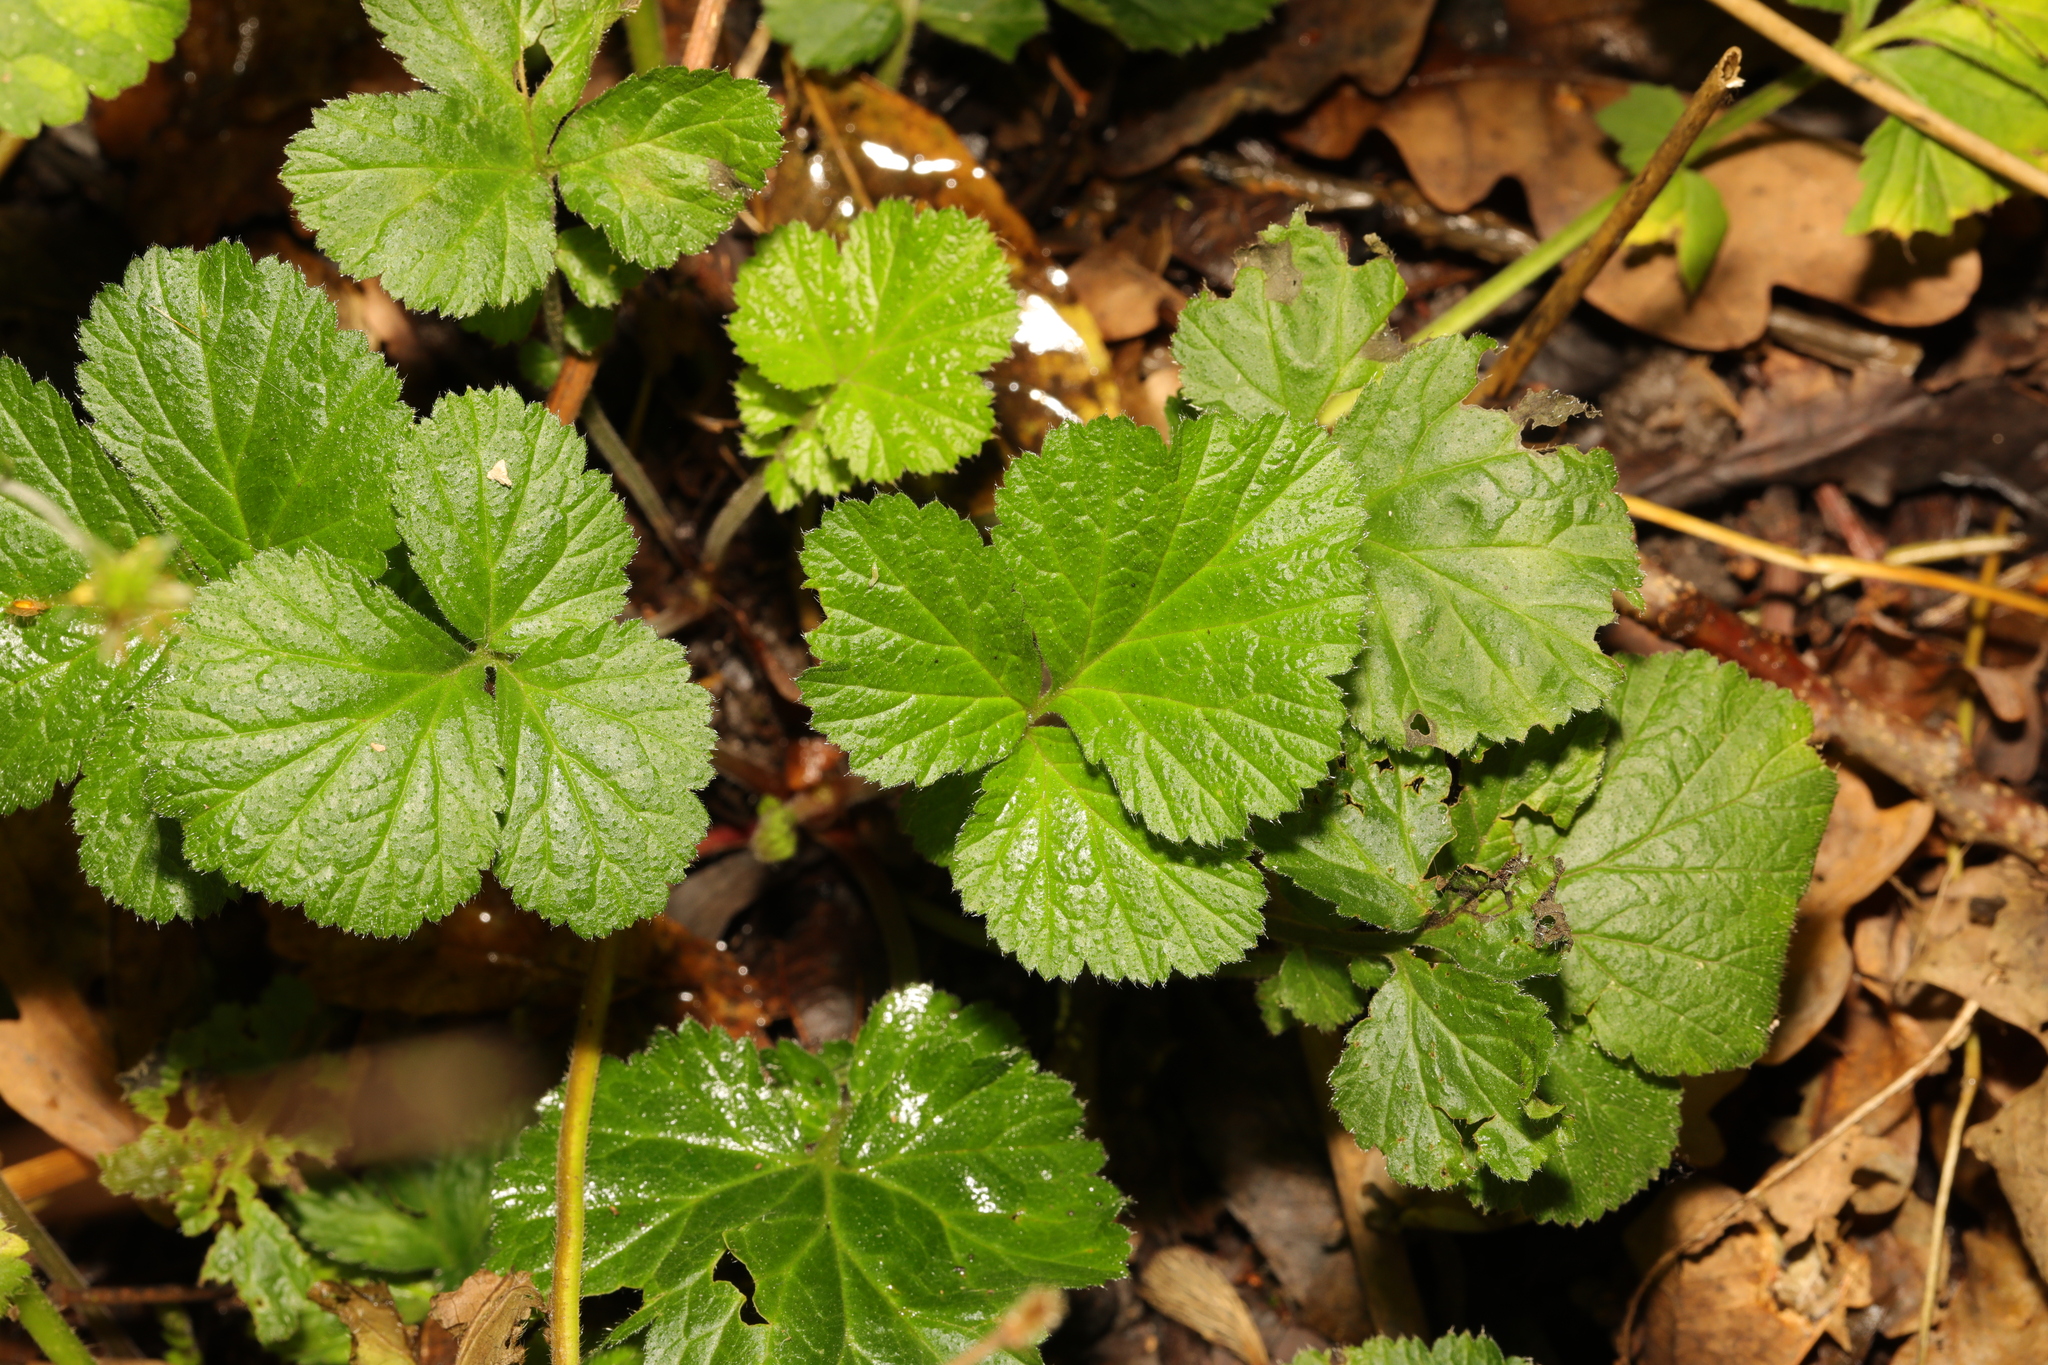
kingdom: Plantae
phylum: Tracheophyta
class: Magnoliopsida
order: Rosales
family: Rosaceae
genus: Geum
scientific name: Geum urbanum
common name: Wood avens
